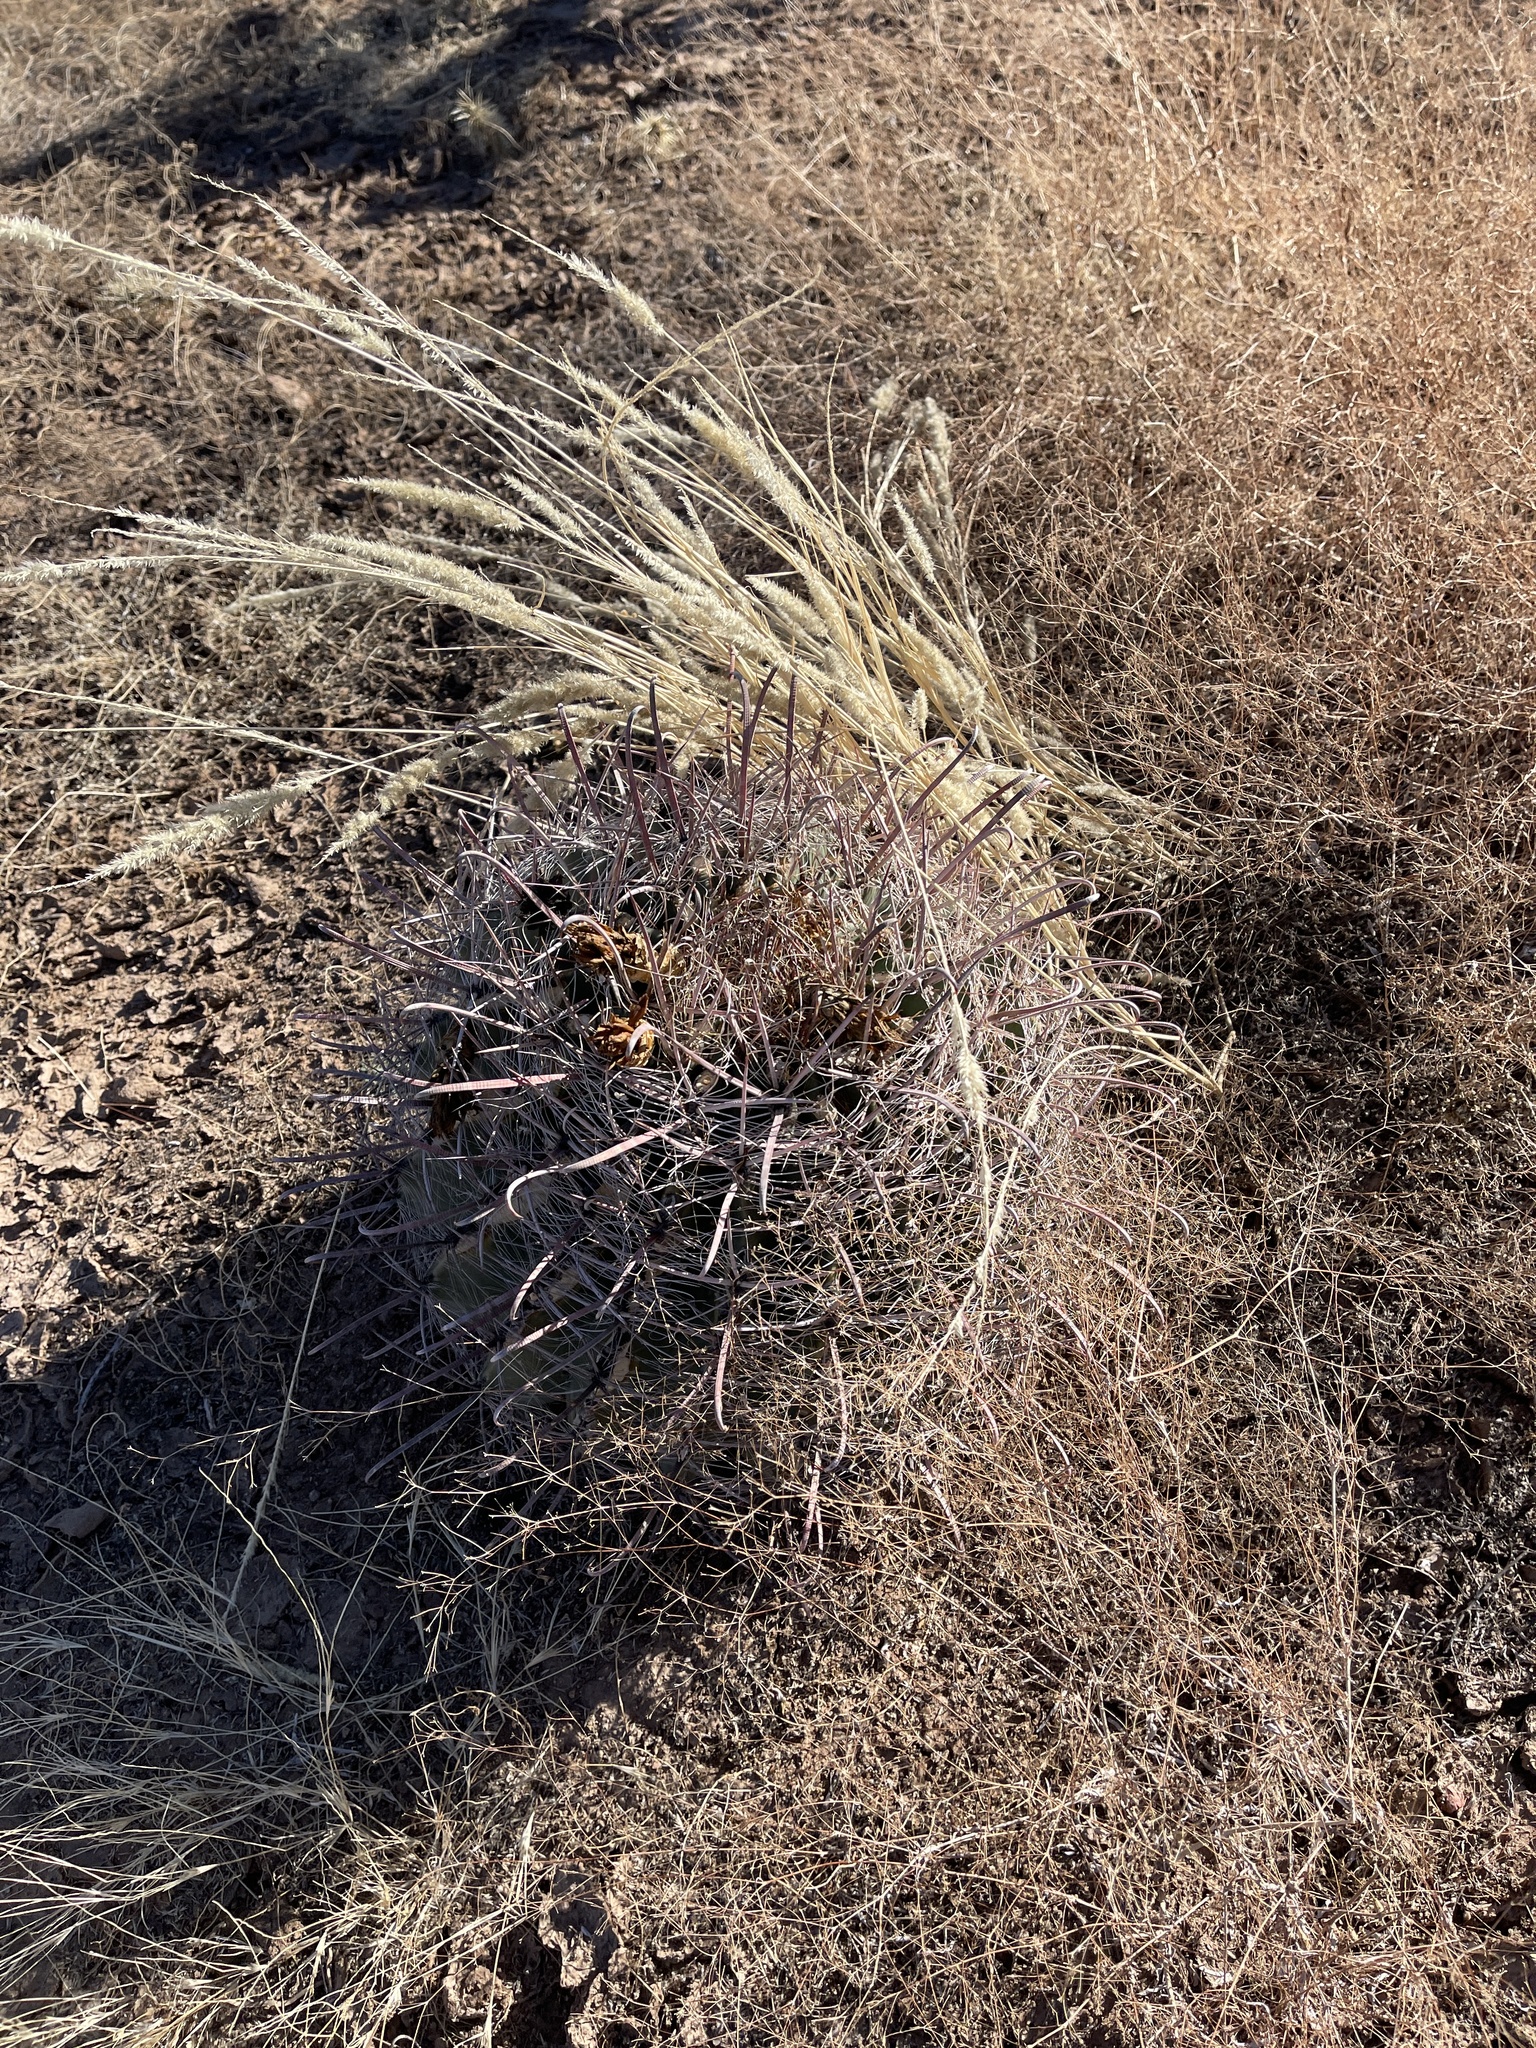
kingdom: Plantae
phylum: Tracheophyta
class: Magnoliopsida
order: Caryophyllales
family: Cactaceae
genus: Ferocactus
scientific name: Ferocactus wislizeni
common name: Candy barrel cactus
